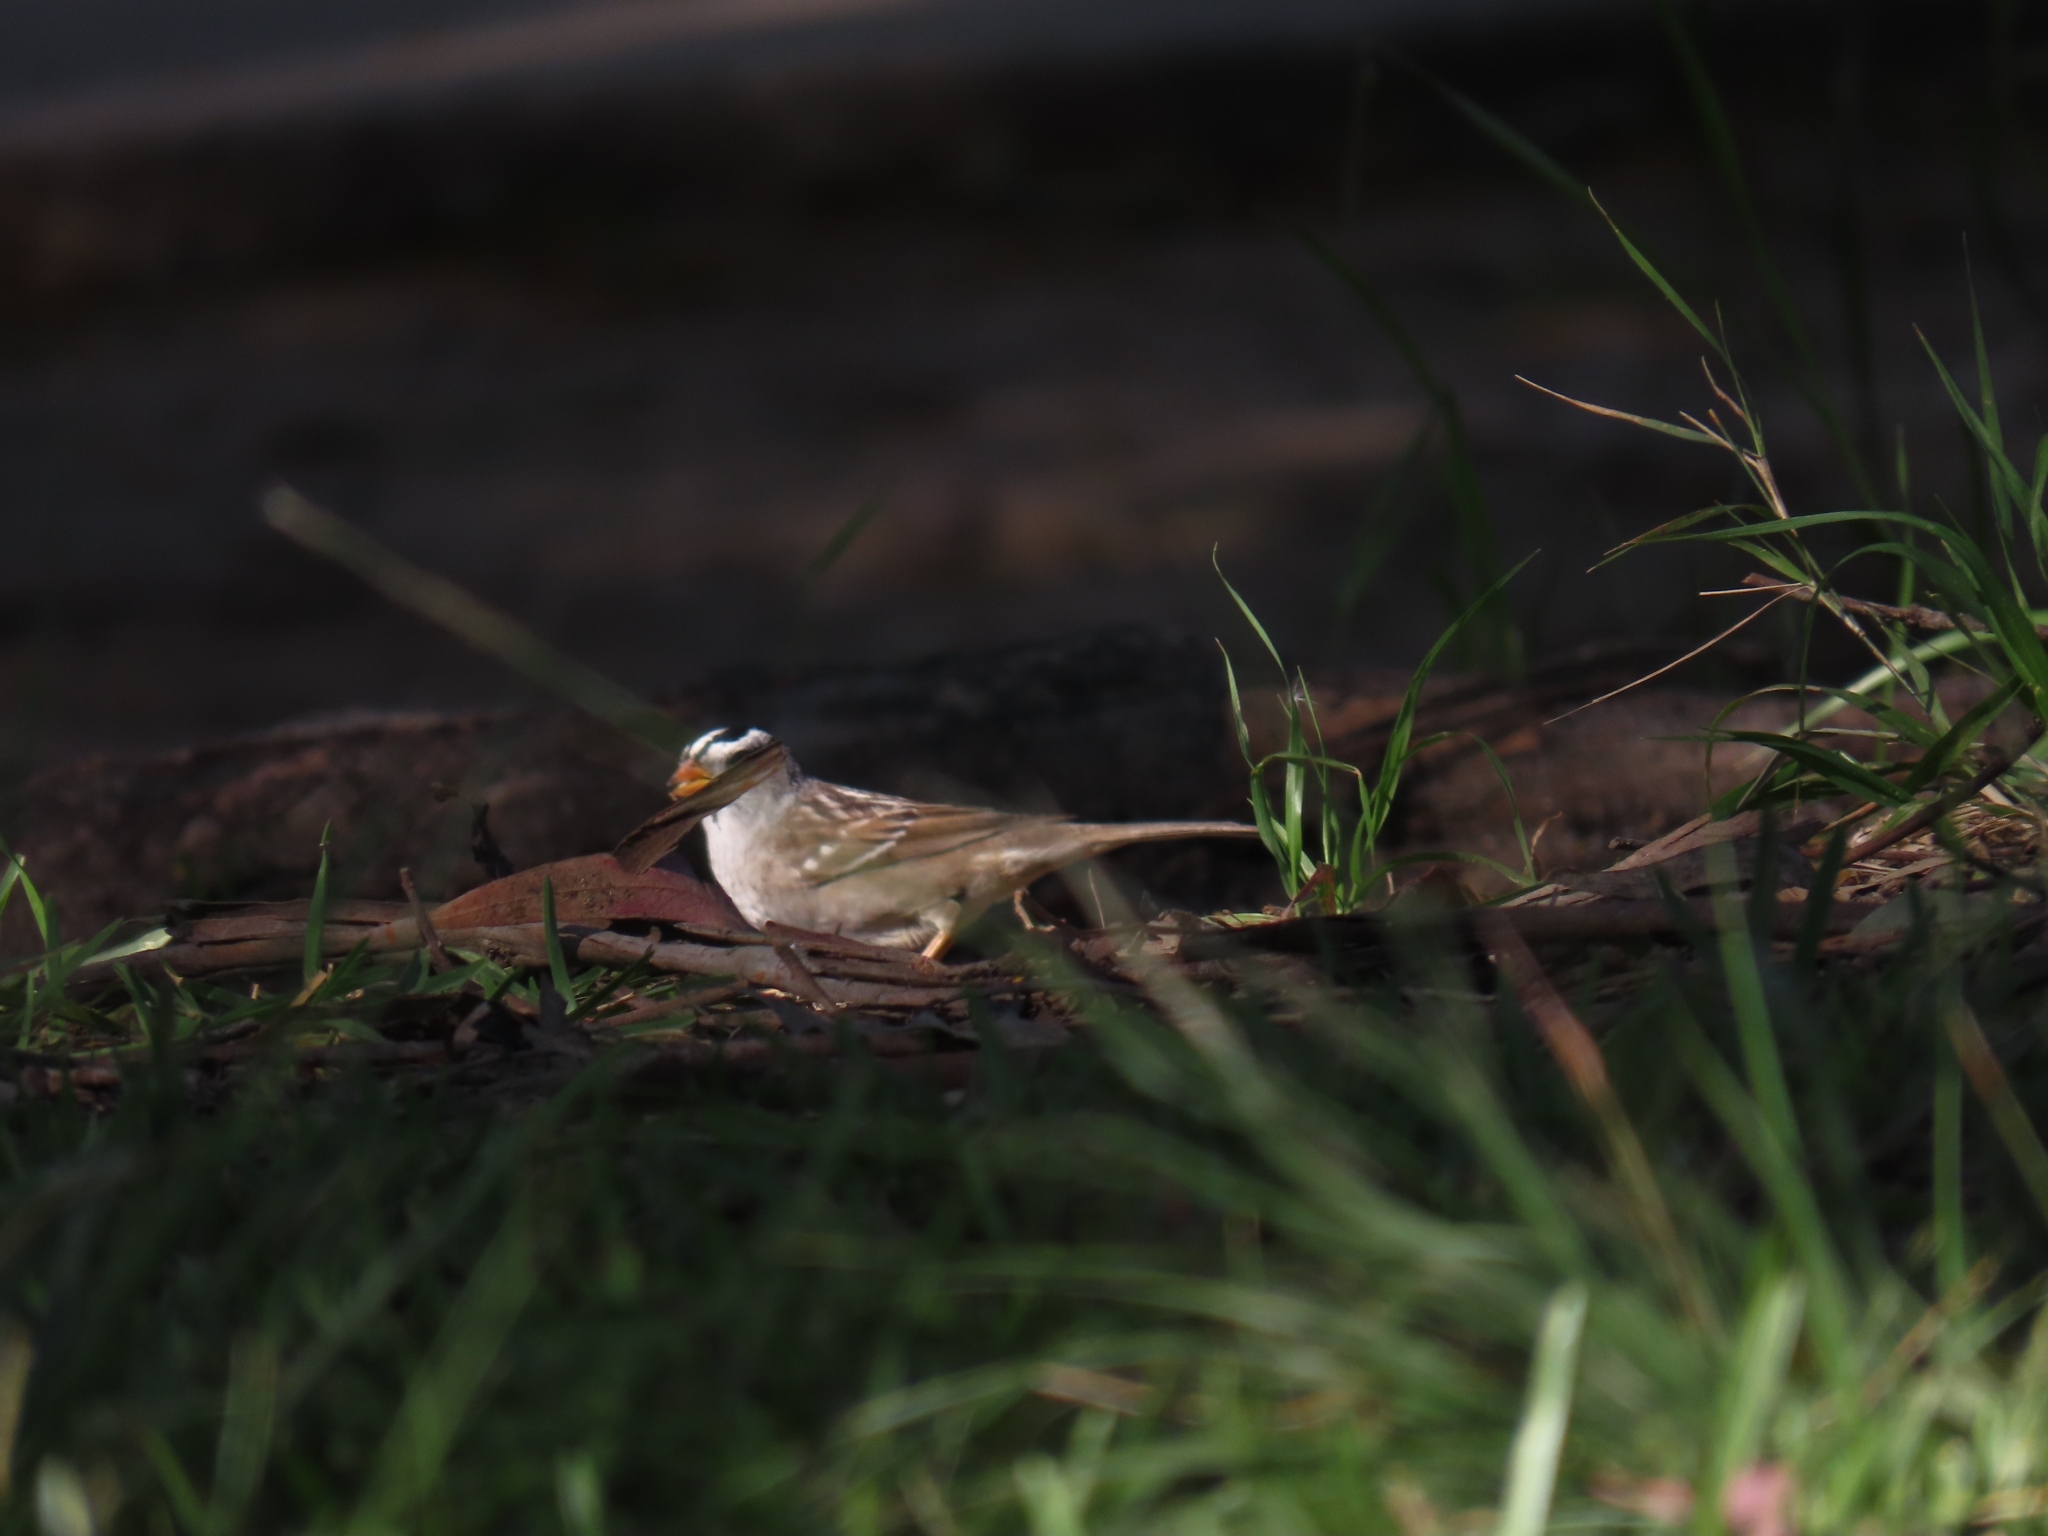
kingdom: Animalia
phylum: Chordata
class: Aves
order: Passeriformes
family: Passerellidae
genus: Zonotrichia
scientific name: Zonotrichia leucophrys
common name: White-crowned sparrow
